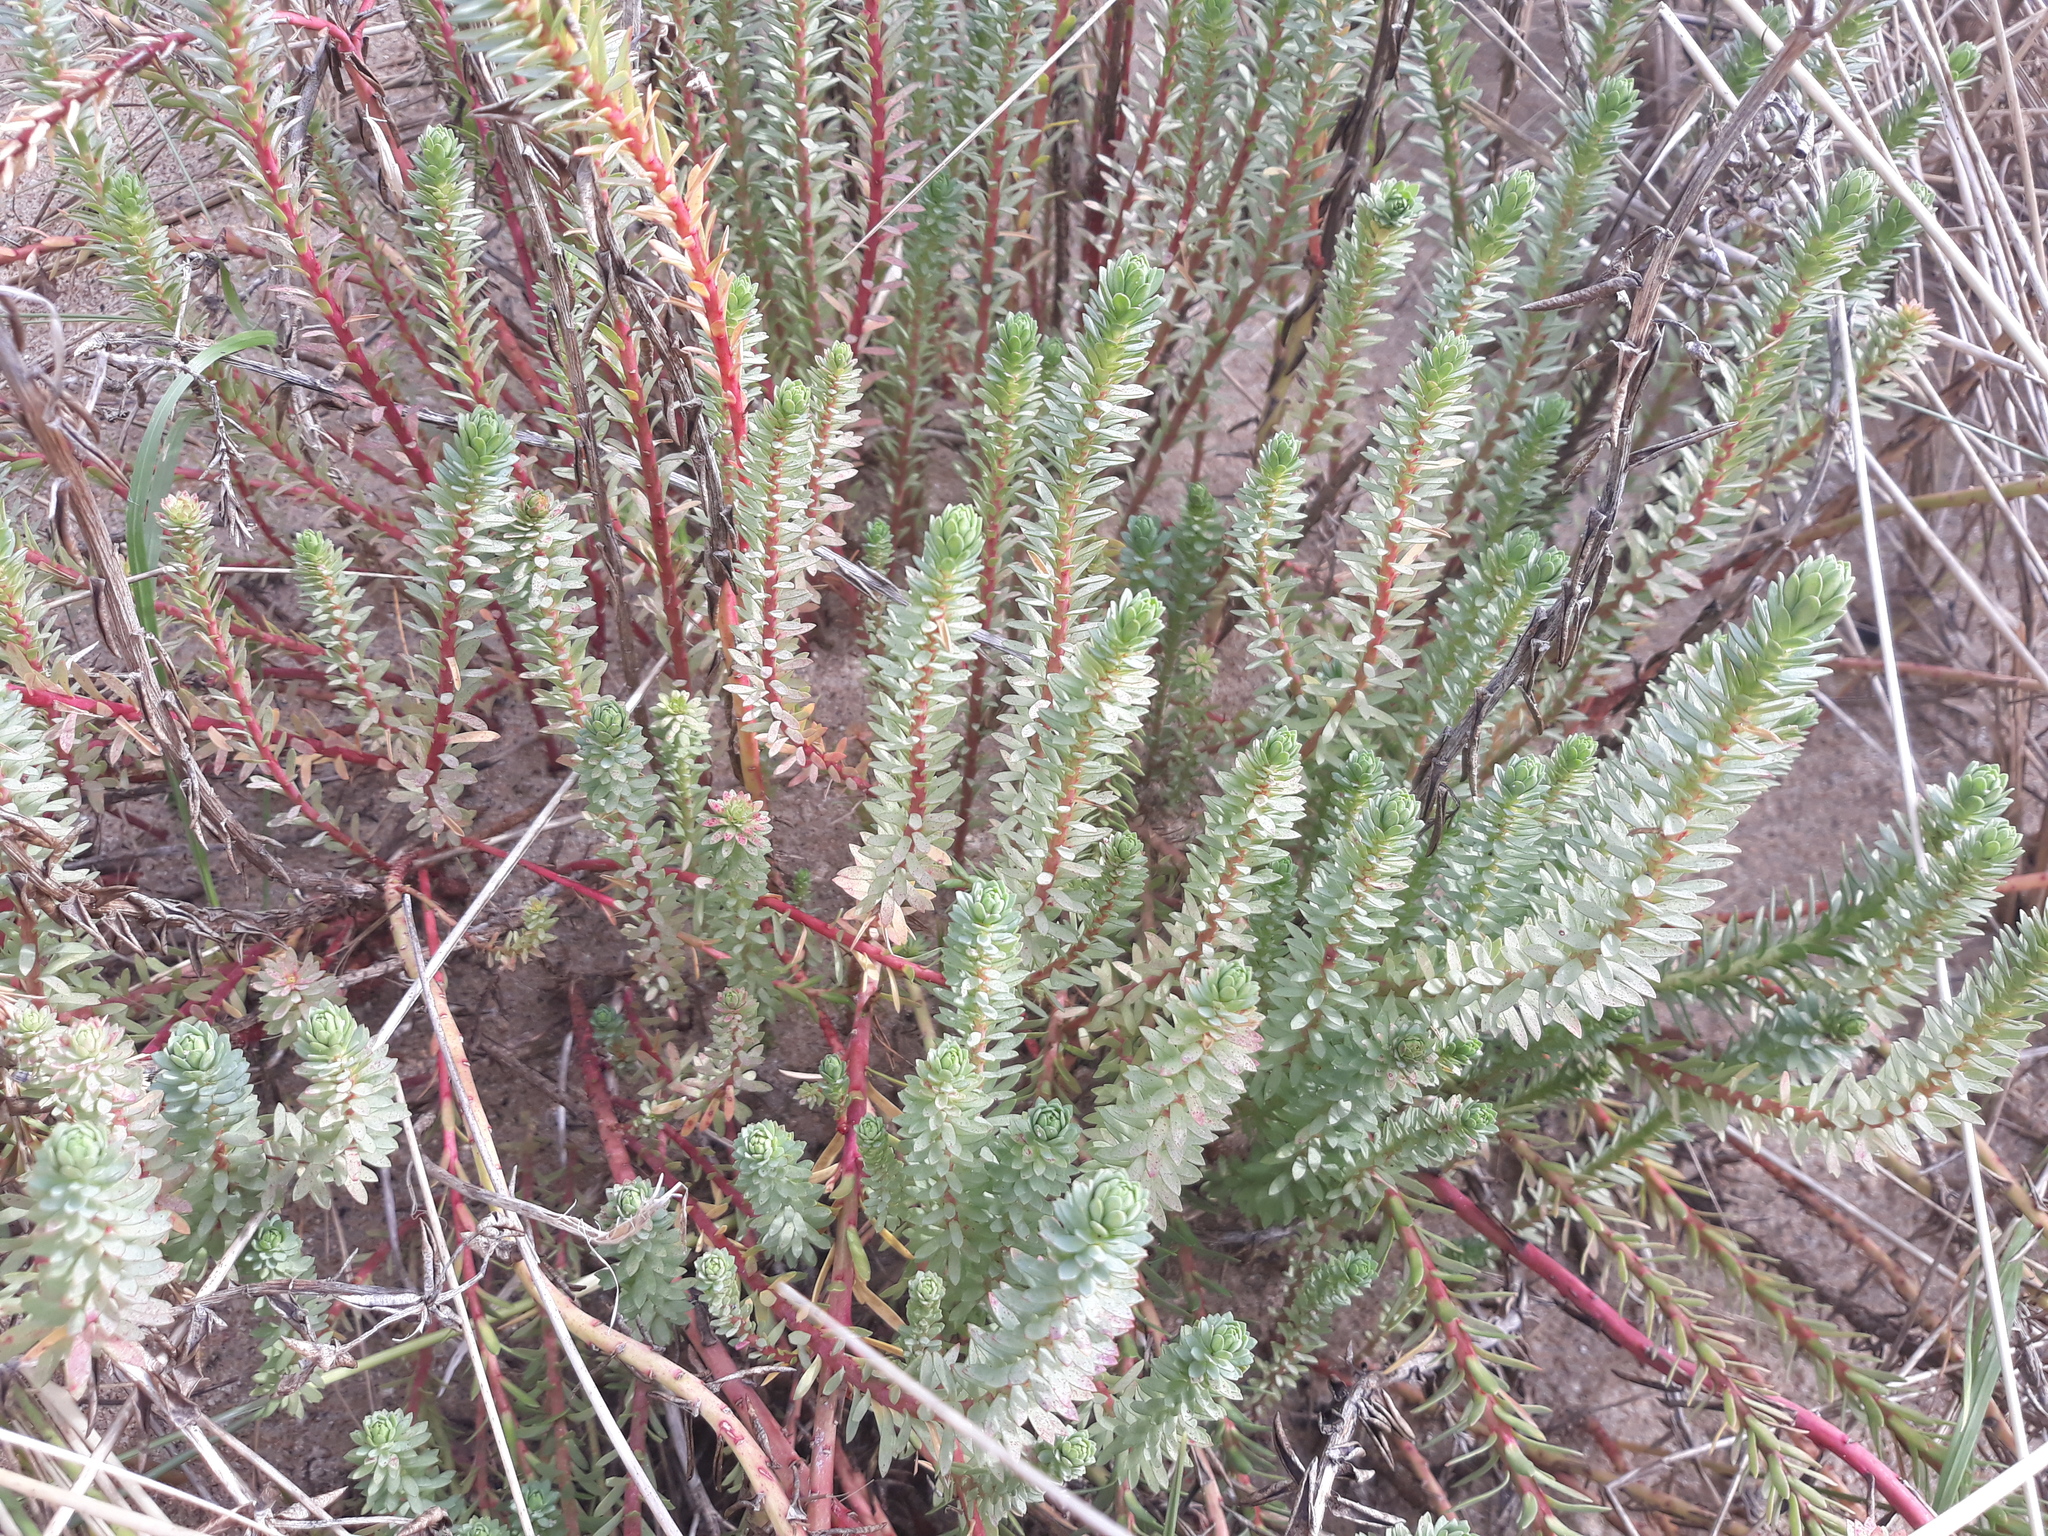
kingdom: Plantae
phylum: Tracheophyta
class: Magnoliopsida
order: Malpighiales
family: Euphorbiaceae
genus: Euphorbia
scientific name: Euphorbia paralias
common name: Sea spurge
